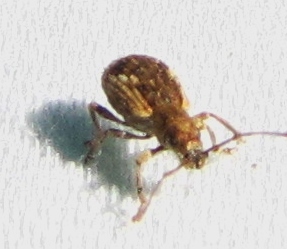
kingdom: Animalia
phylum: Arthropoda
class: Insecta
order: Coleoptera
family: Curculionidae
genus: Pseudoedophrys
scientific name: Pseudoedophrys hilleri
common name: Weevil
